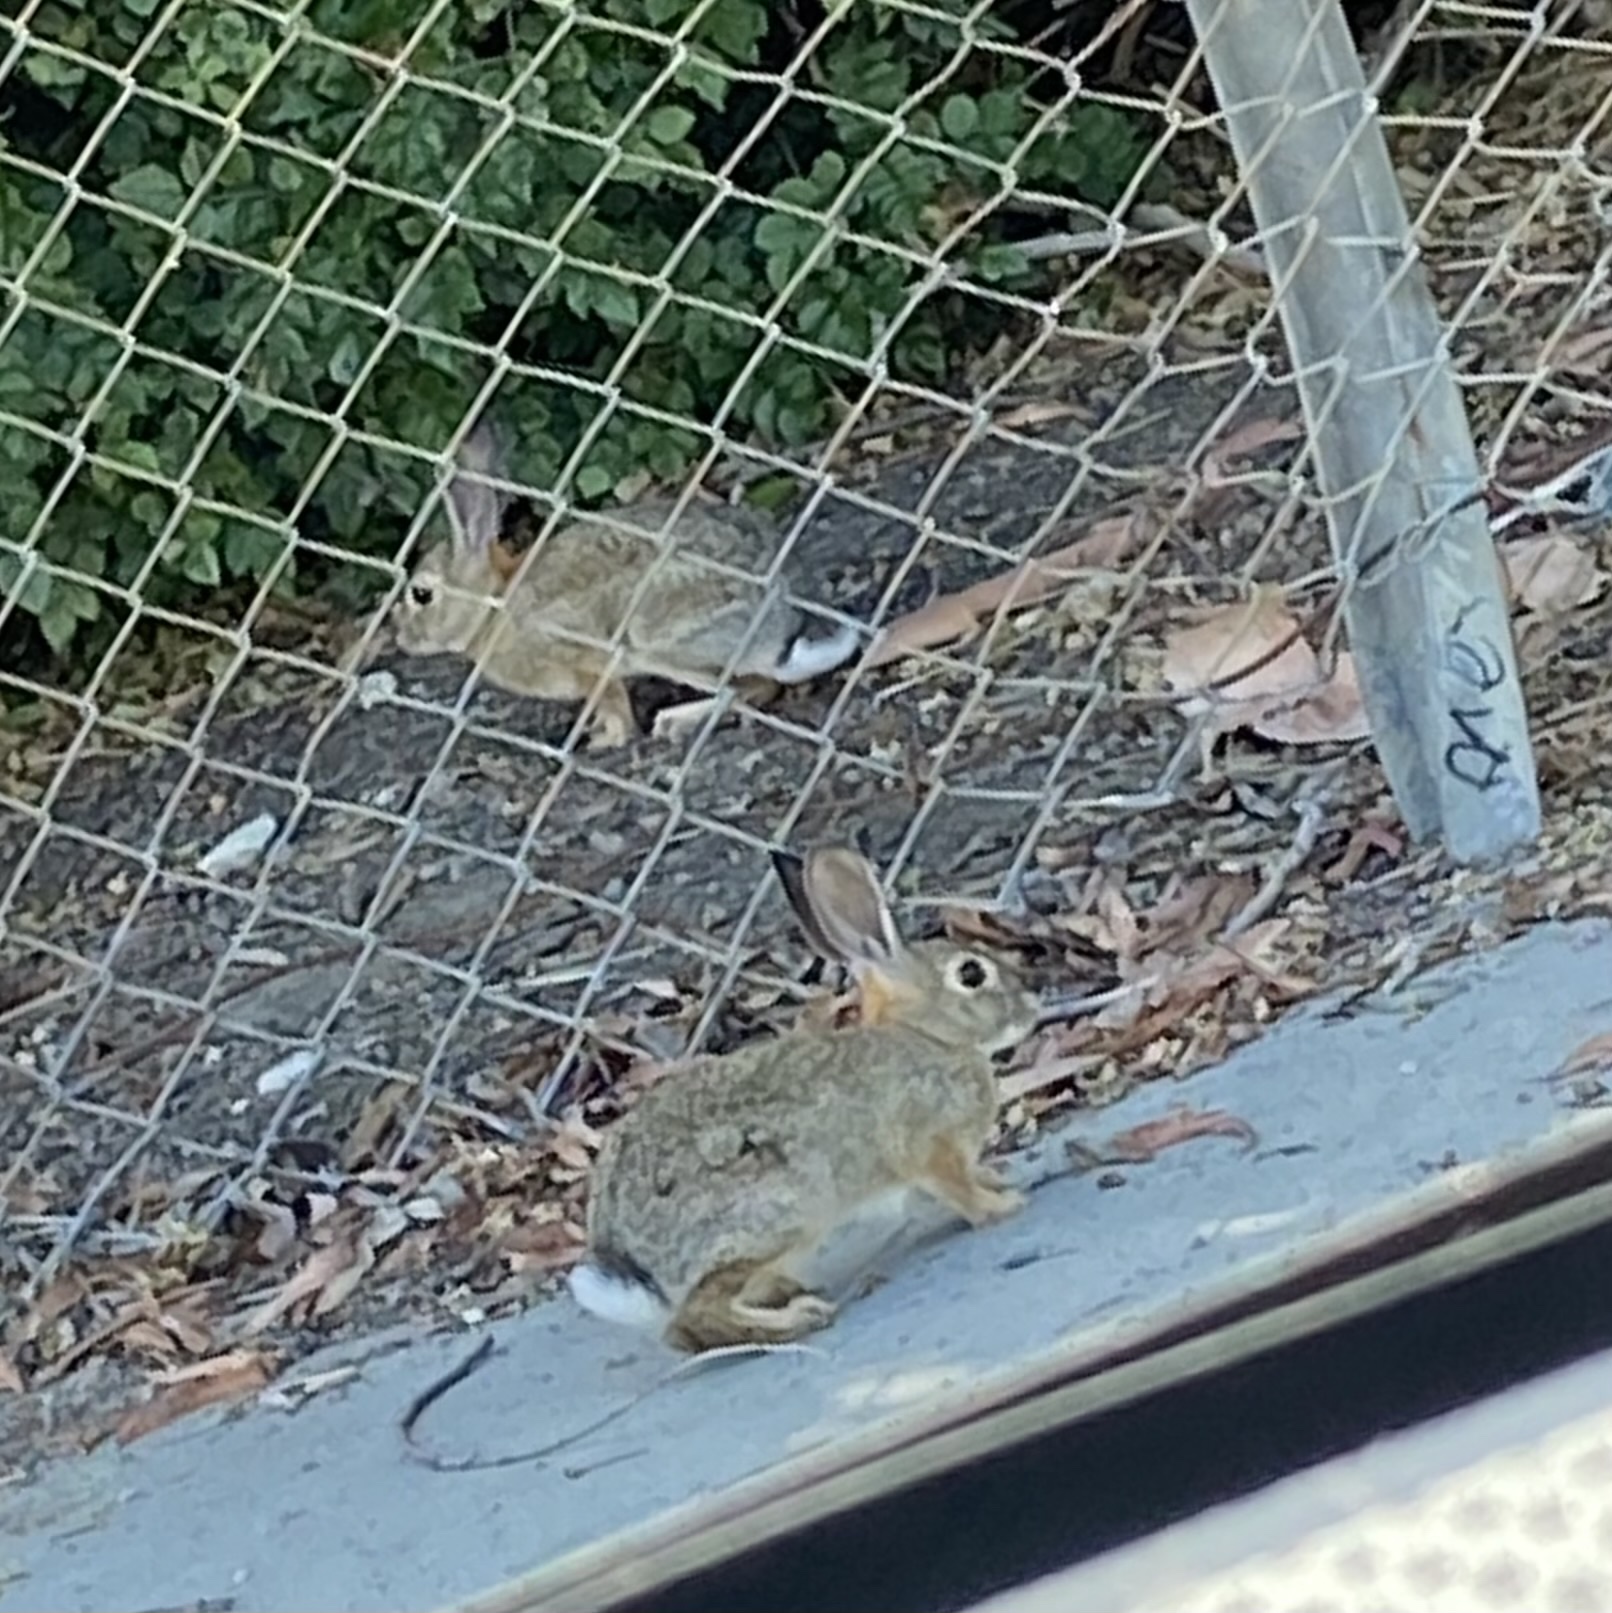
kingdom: Animalia
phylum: Chordata
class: Mammalia
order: Lagomorpha
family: Leporidae
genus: Sylvilagus
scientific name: Sylvilagus audubonii
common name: Desert cottontail
